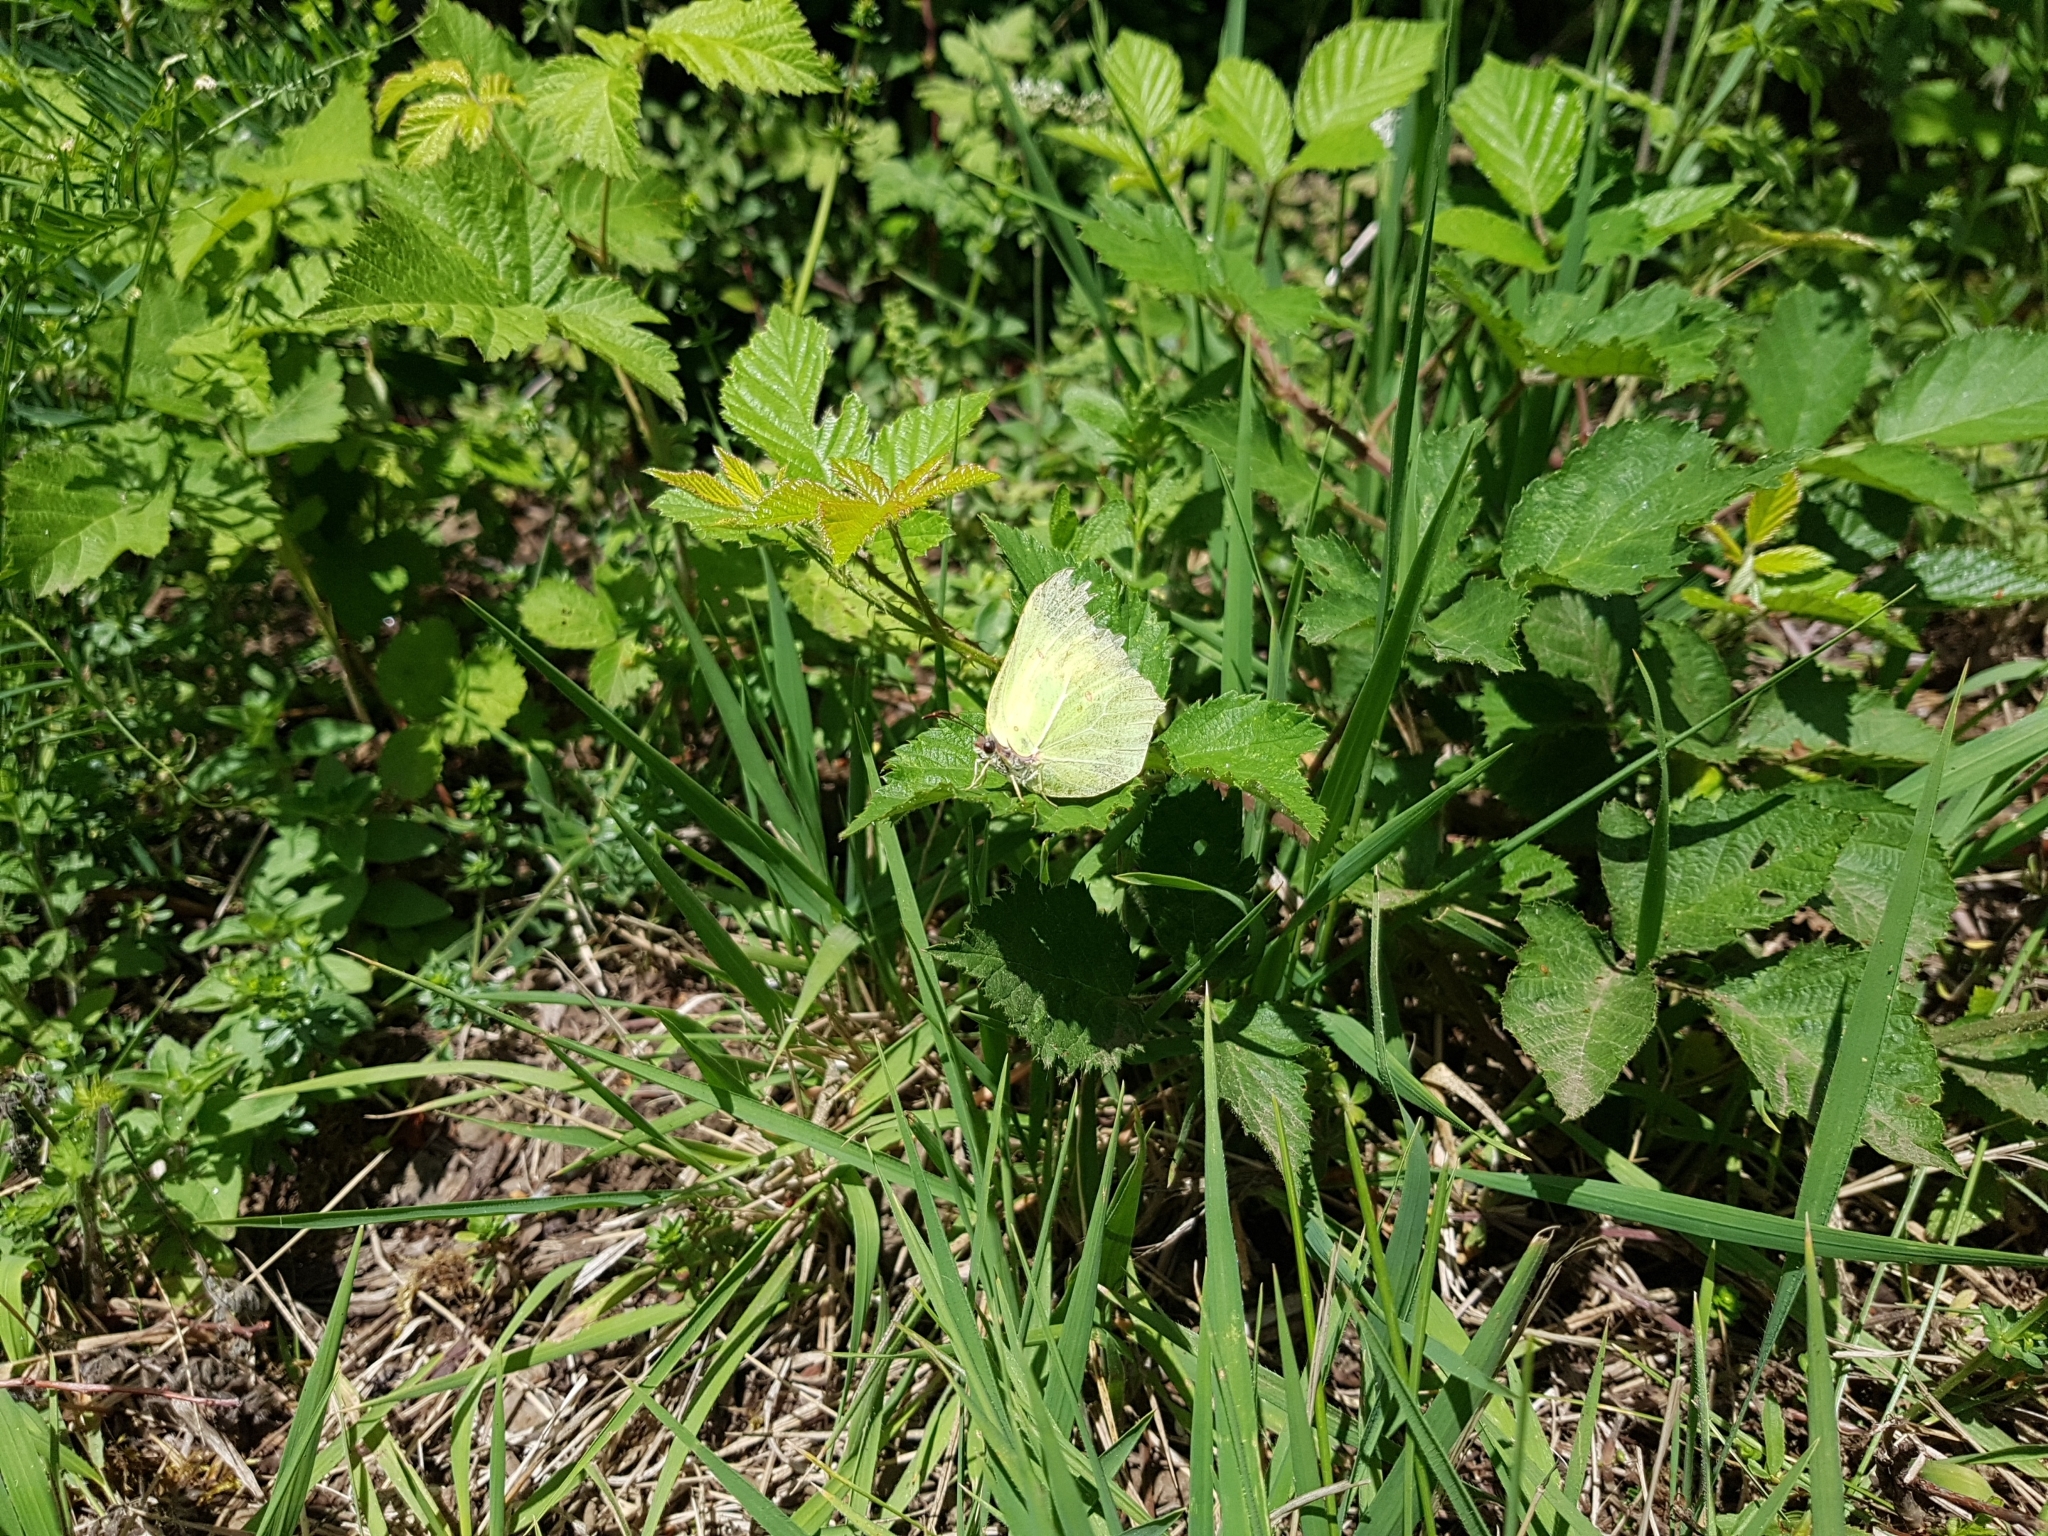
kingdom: Animalia
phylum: Arthropoda
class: Insecta
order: Lepidoptera
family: Pieridae
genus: Gonepteryx
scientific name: Gonepteryx rhamni
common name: Brimstone
